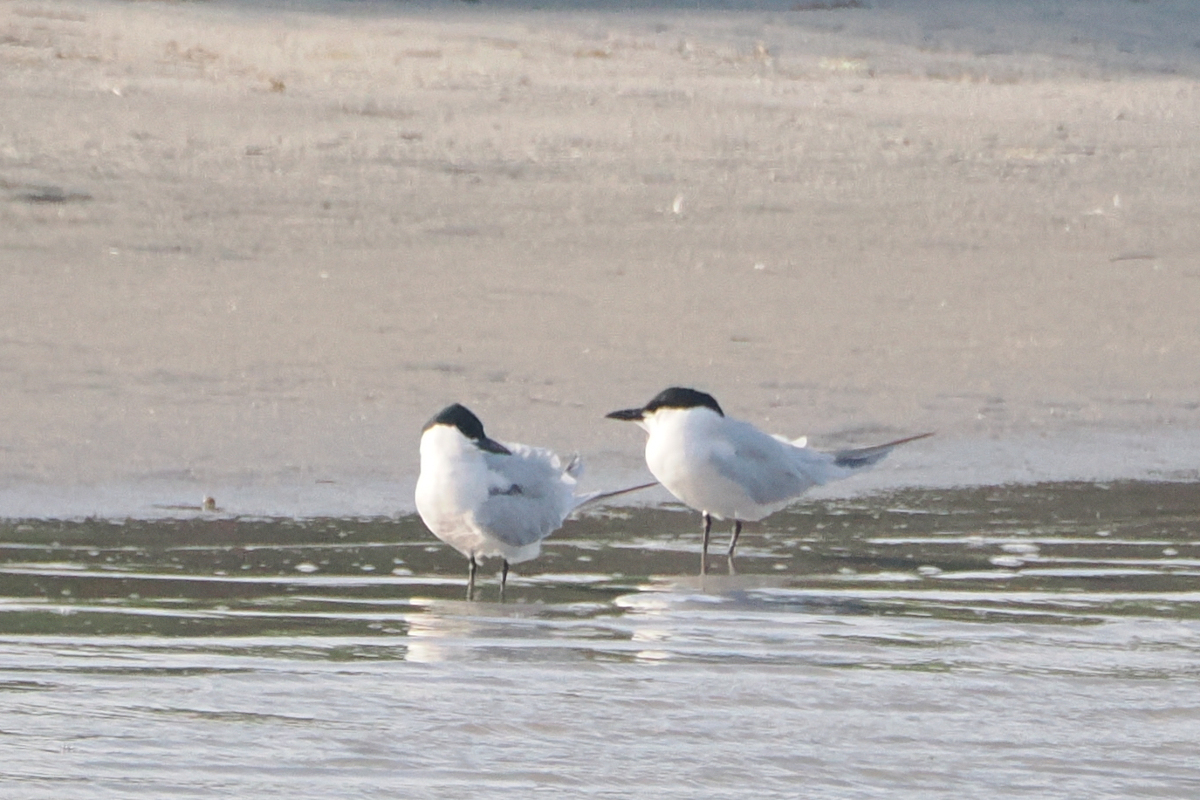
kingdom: Animalia
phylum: Chordata
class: Aves
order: Charadriiformes
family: Laridae
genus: Gelochelidon
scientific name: Gelochelidon nilotica
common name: Gull-billed tern
